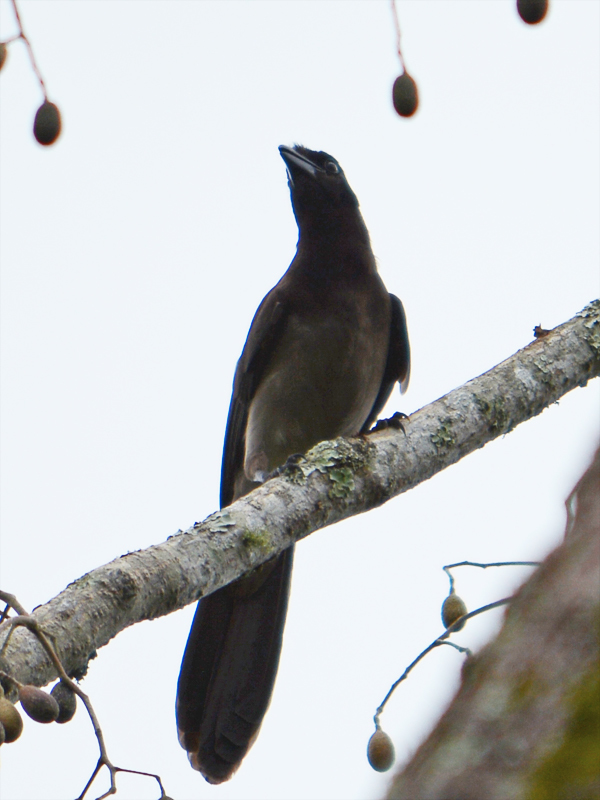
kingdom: Animalia
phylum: Chordata
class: Aves
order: Passeriformes
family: Corvidae
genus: Psilorhinus
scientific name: Psilorhinus morio
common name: Brown jay
